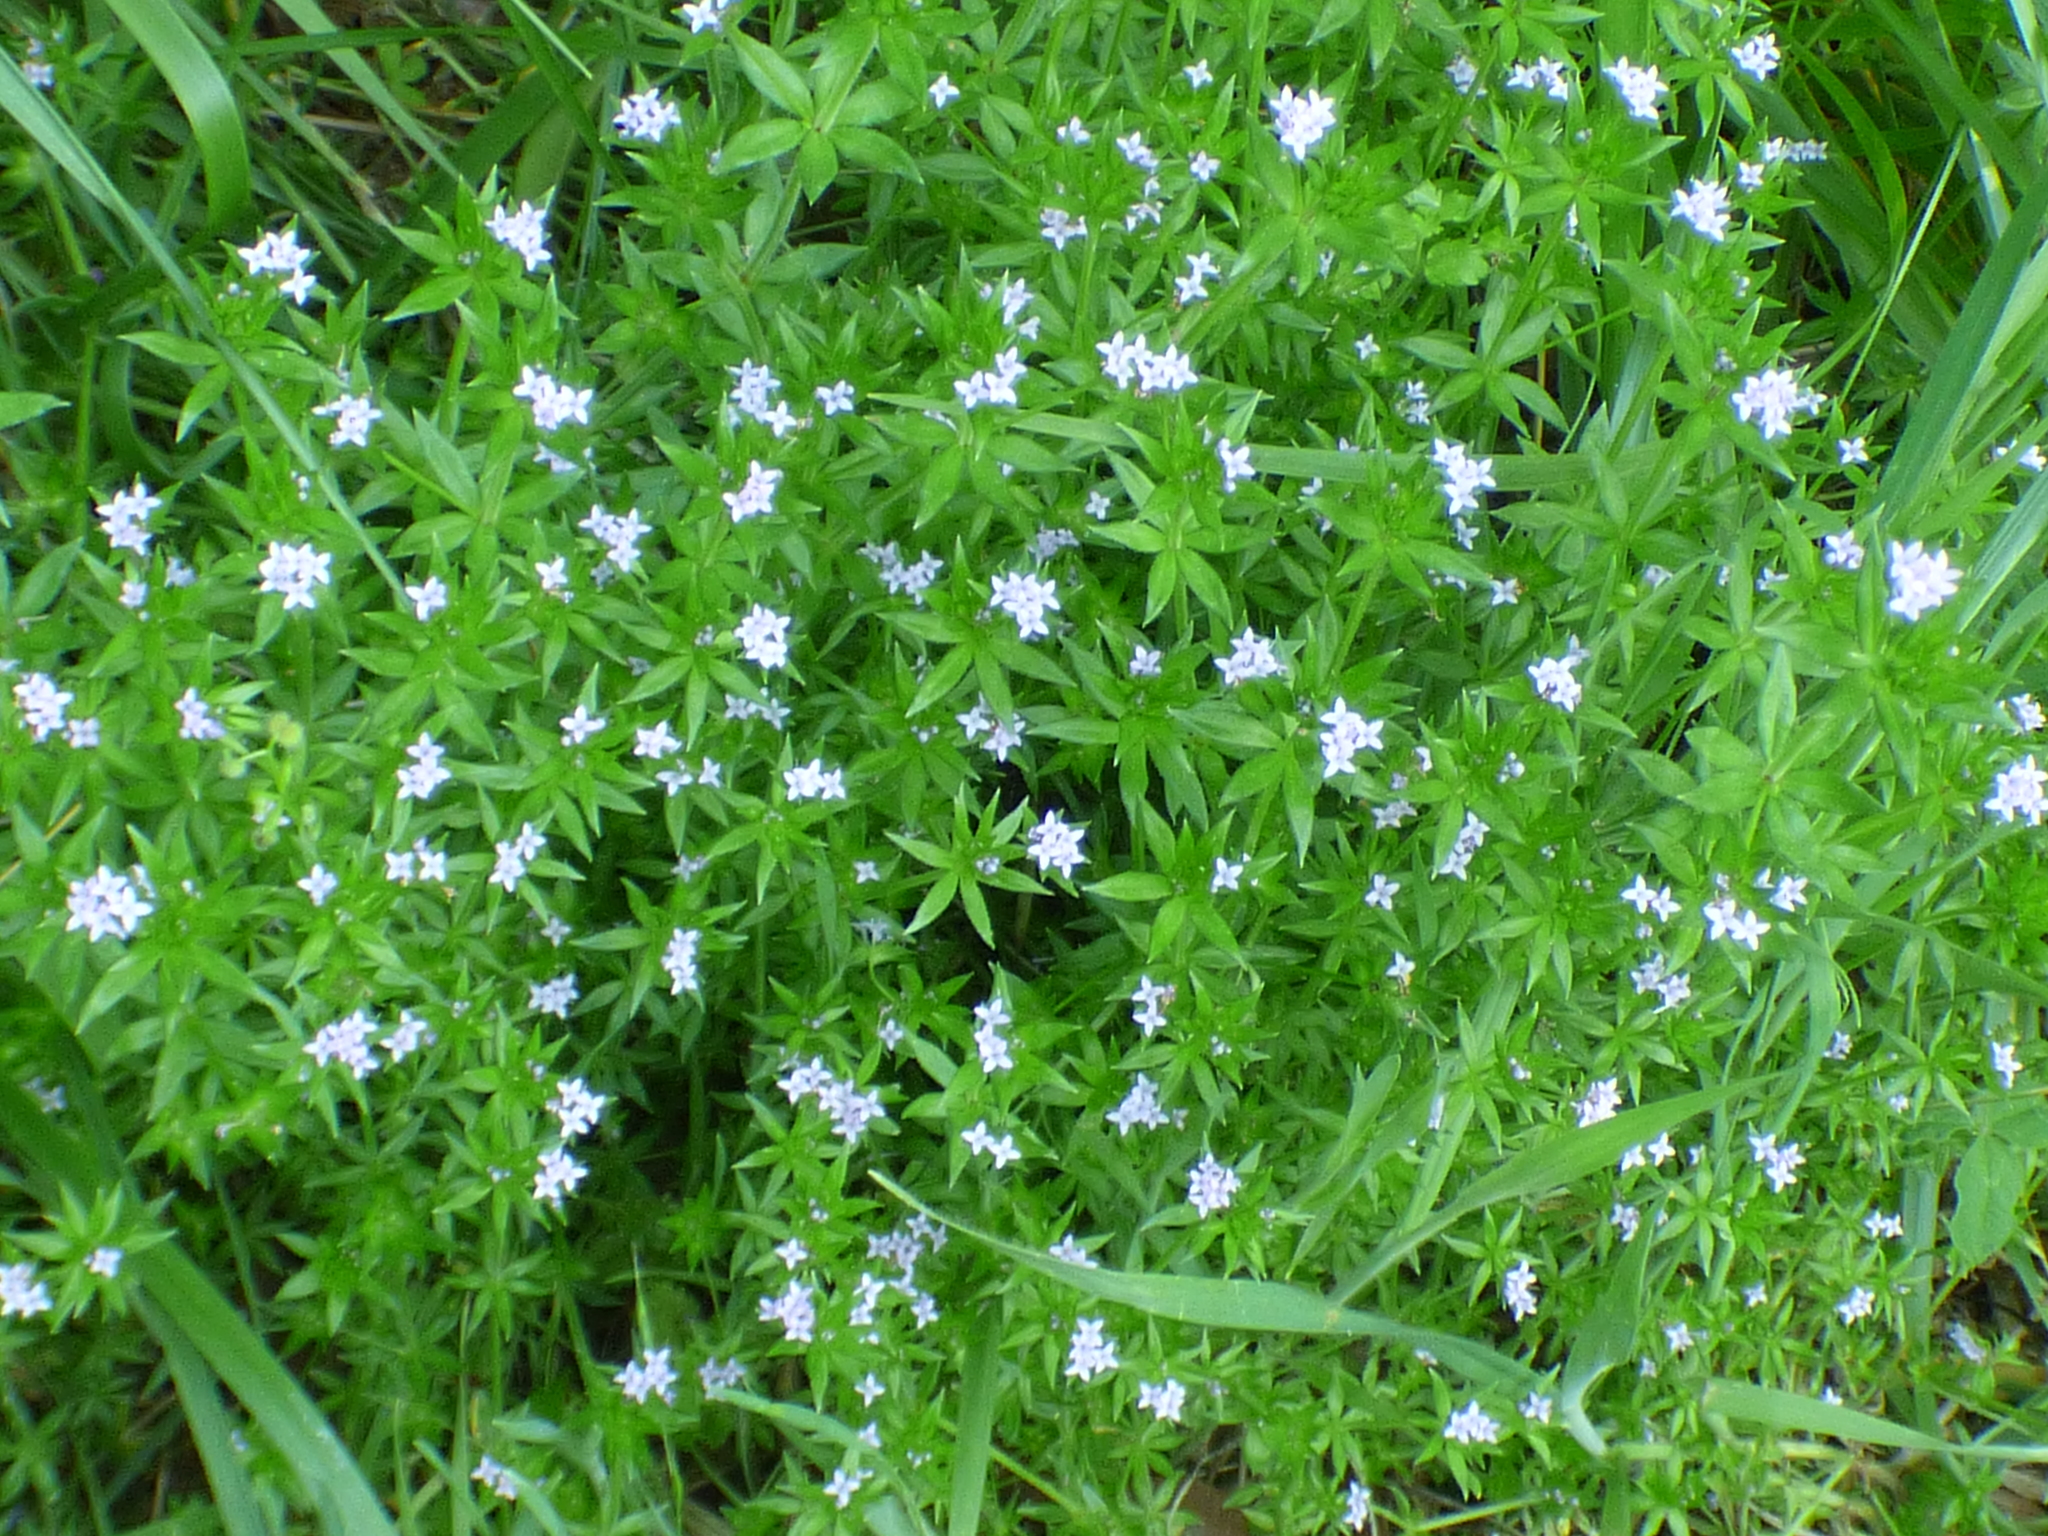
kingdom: Plantae
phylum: Tracheophyta
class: Magnoliopsida
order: Gentianales
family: Rubiaceae
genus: Sherardia
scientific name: Sherardia arvensis
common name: Field madder
